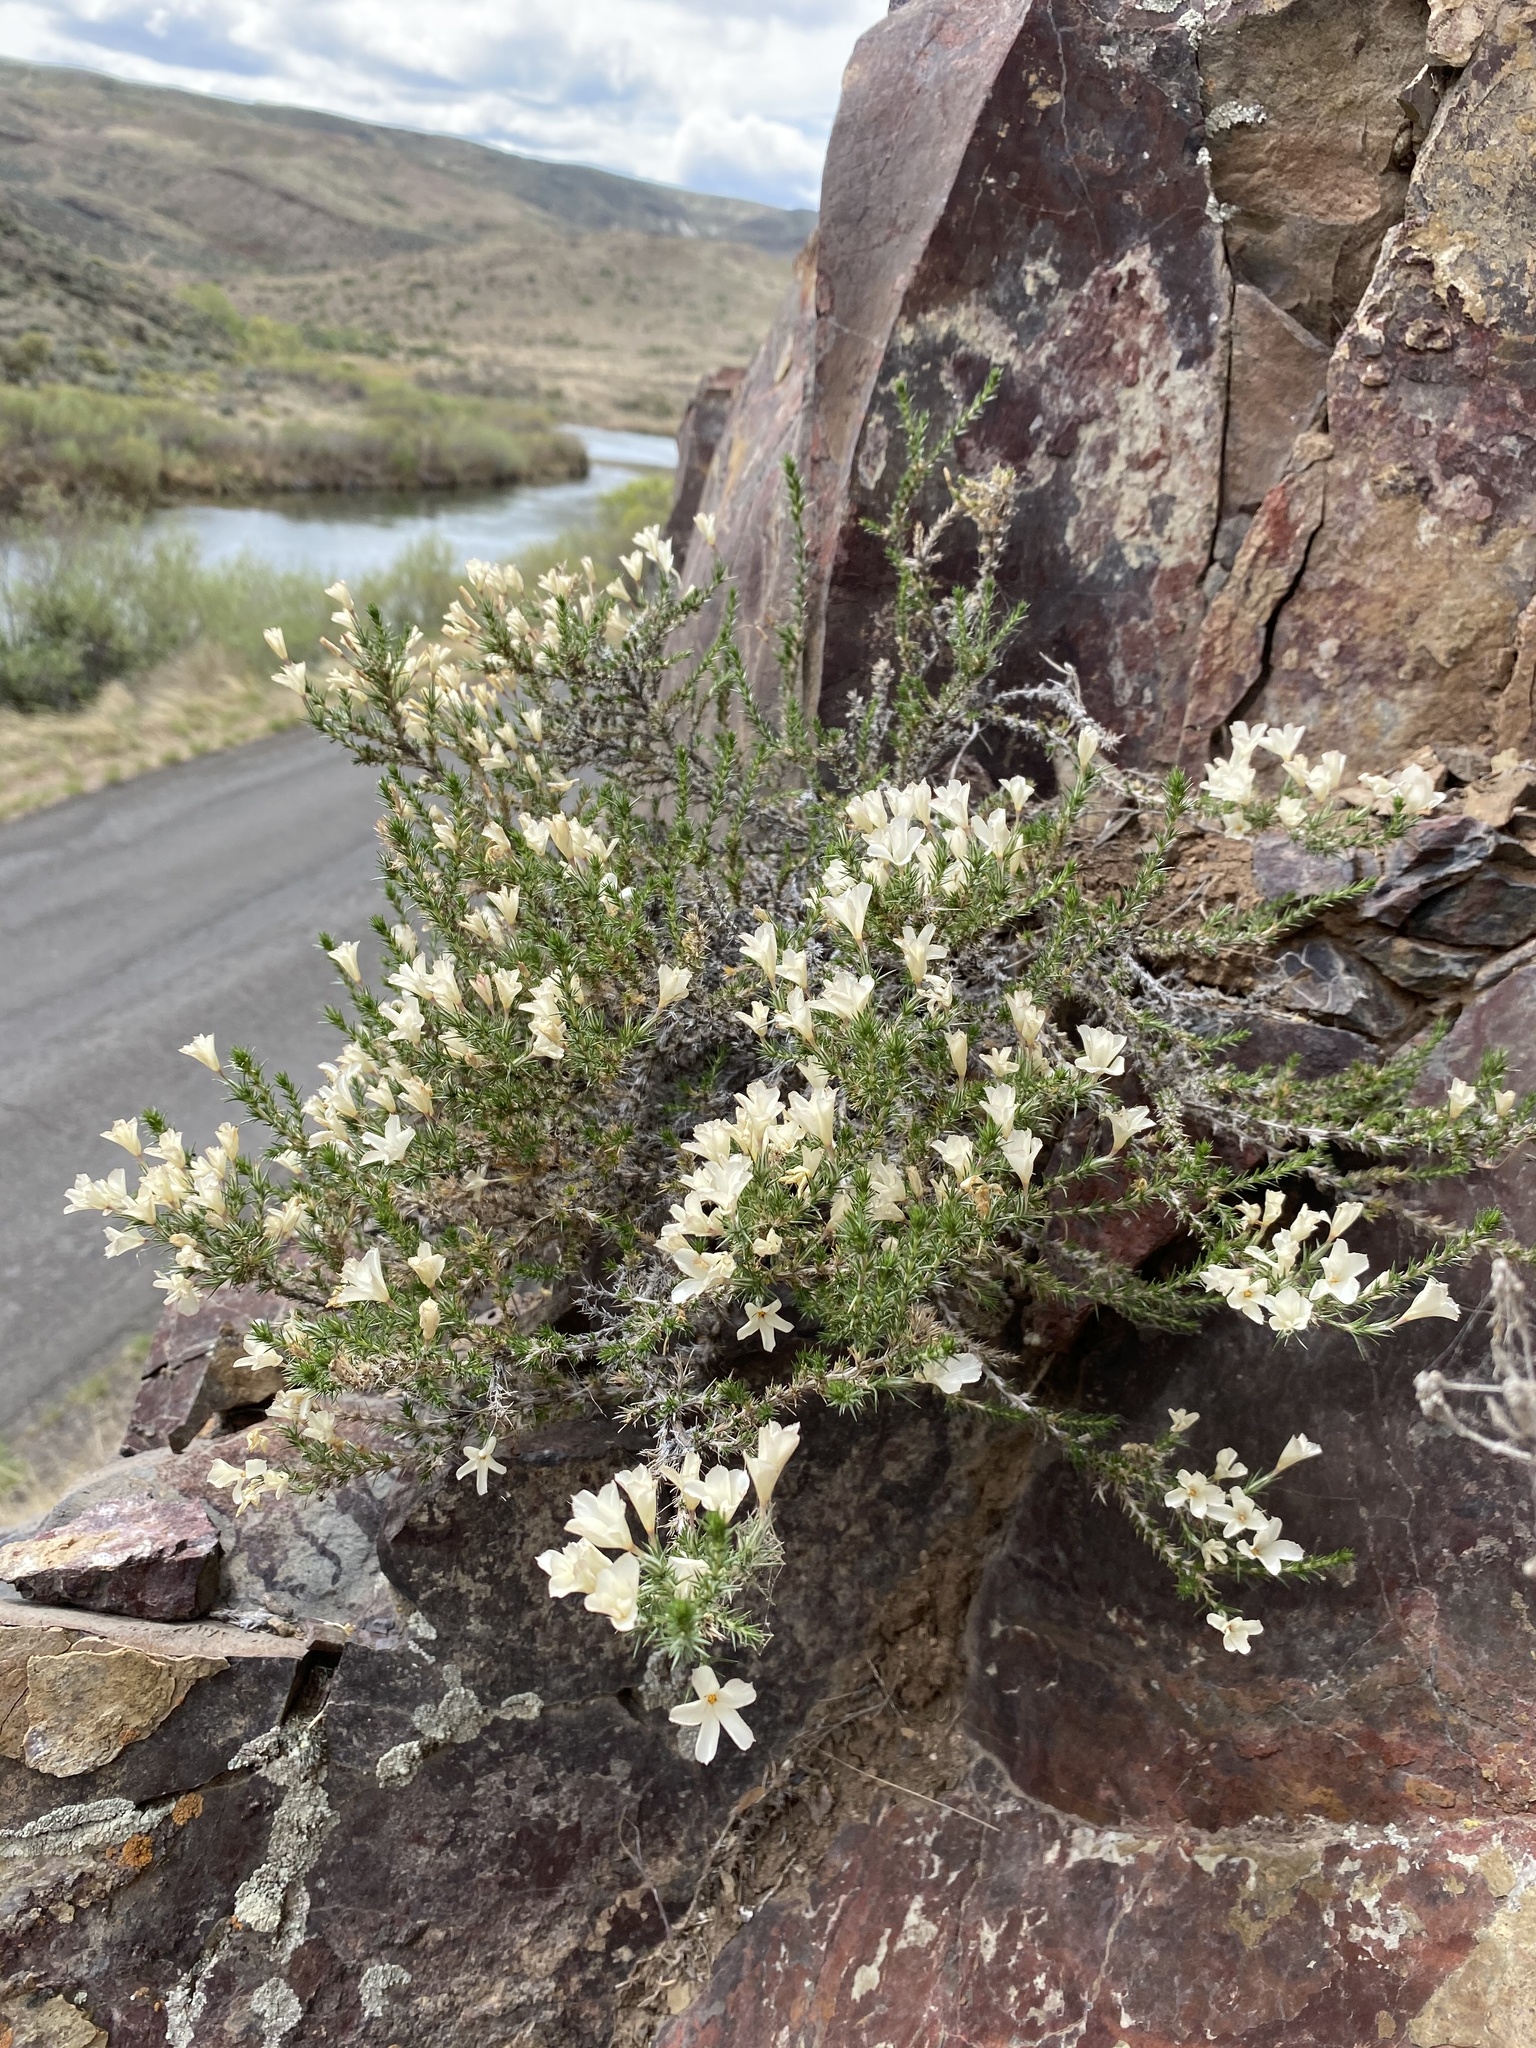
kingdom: Plantae
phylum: Tracheophyta
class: Magnoliopsida
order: Ericales
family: Polemoniaceae
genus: Linanthus
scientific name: Linanthus pungens
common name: Granite prickly phlox
